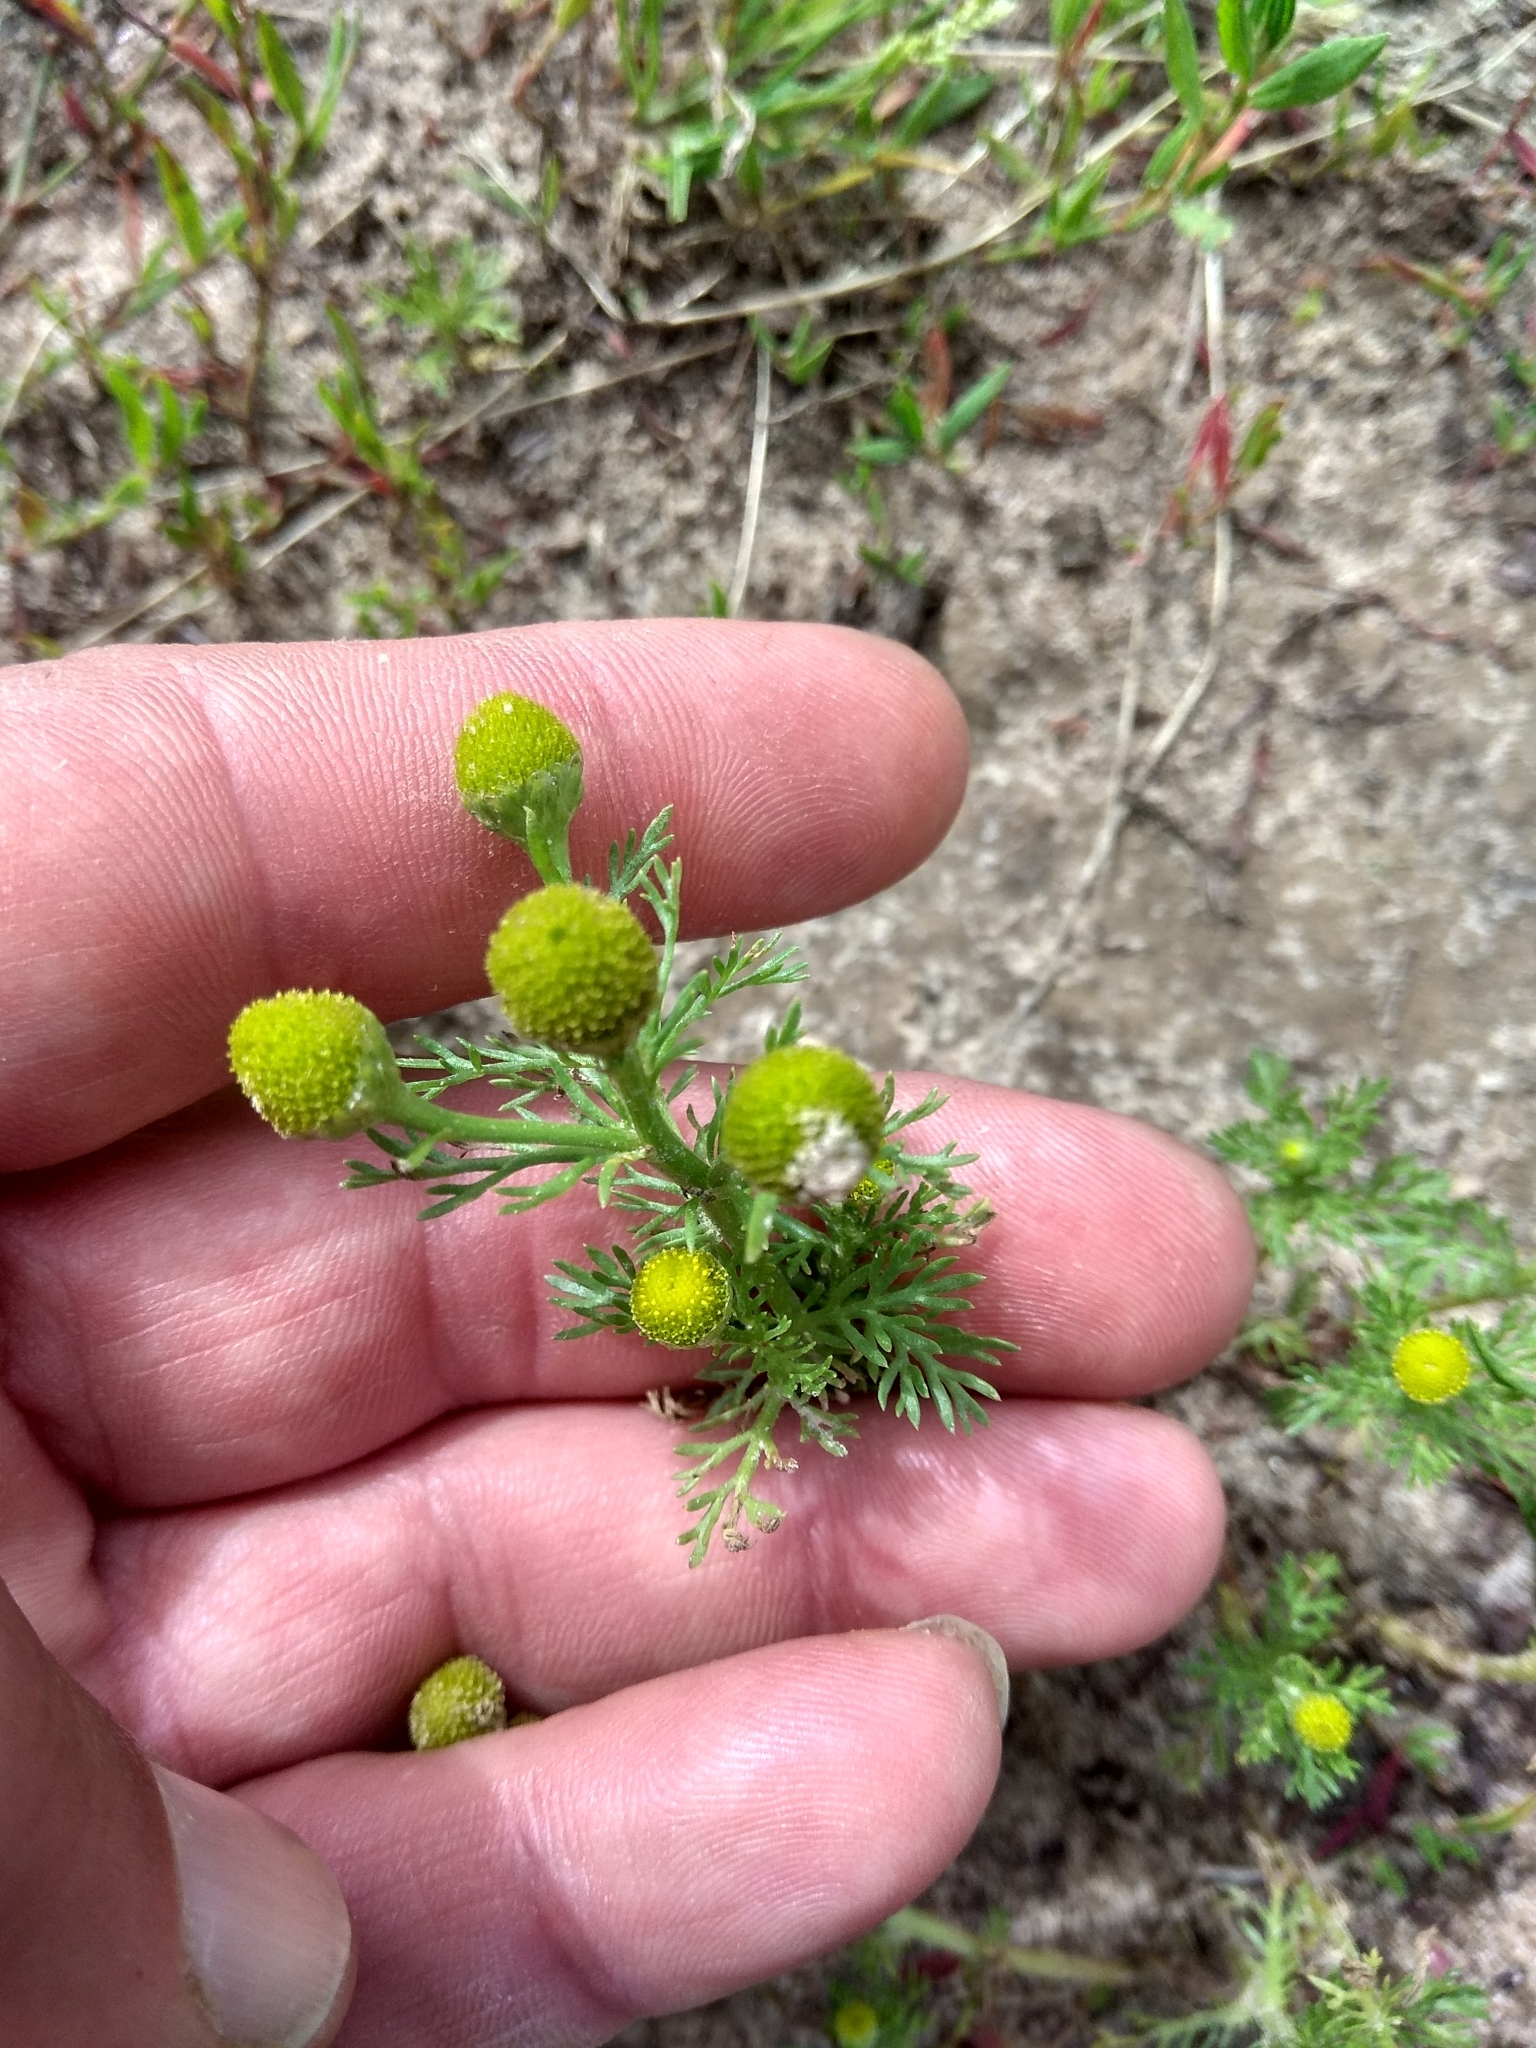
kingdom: Plantae
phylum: Tracheophyta
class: Magnoliopsida
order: Asterales
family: Asteraceae
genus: Matricaria
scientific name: Matricaria discoidea
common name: Disc mayweed
